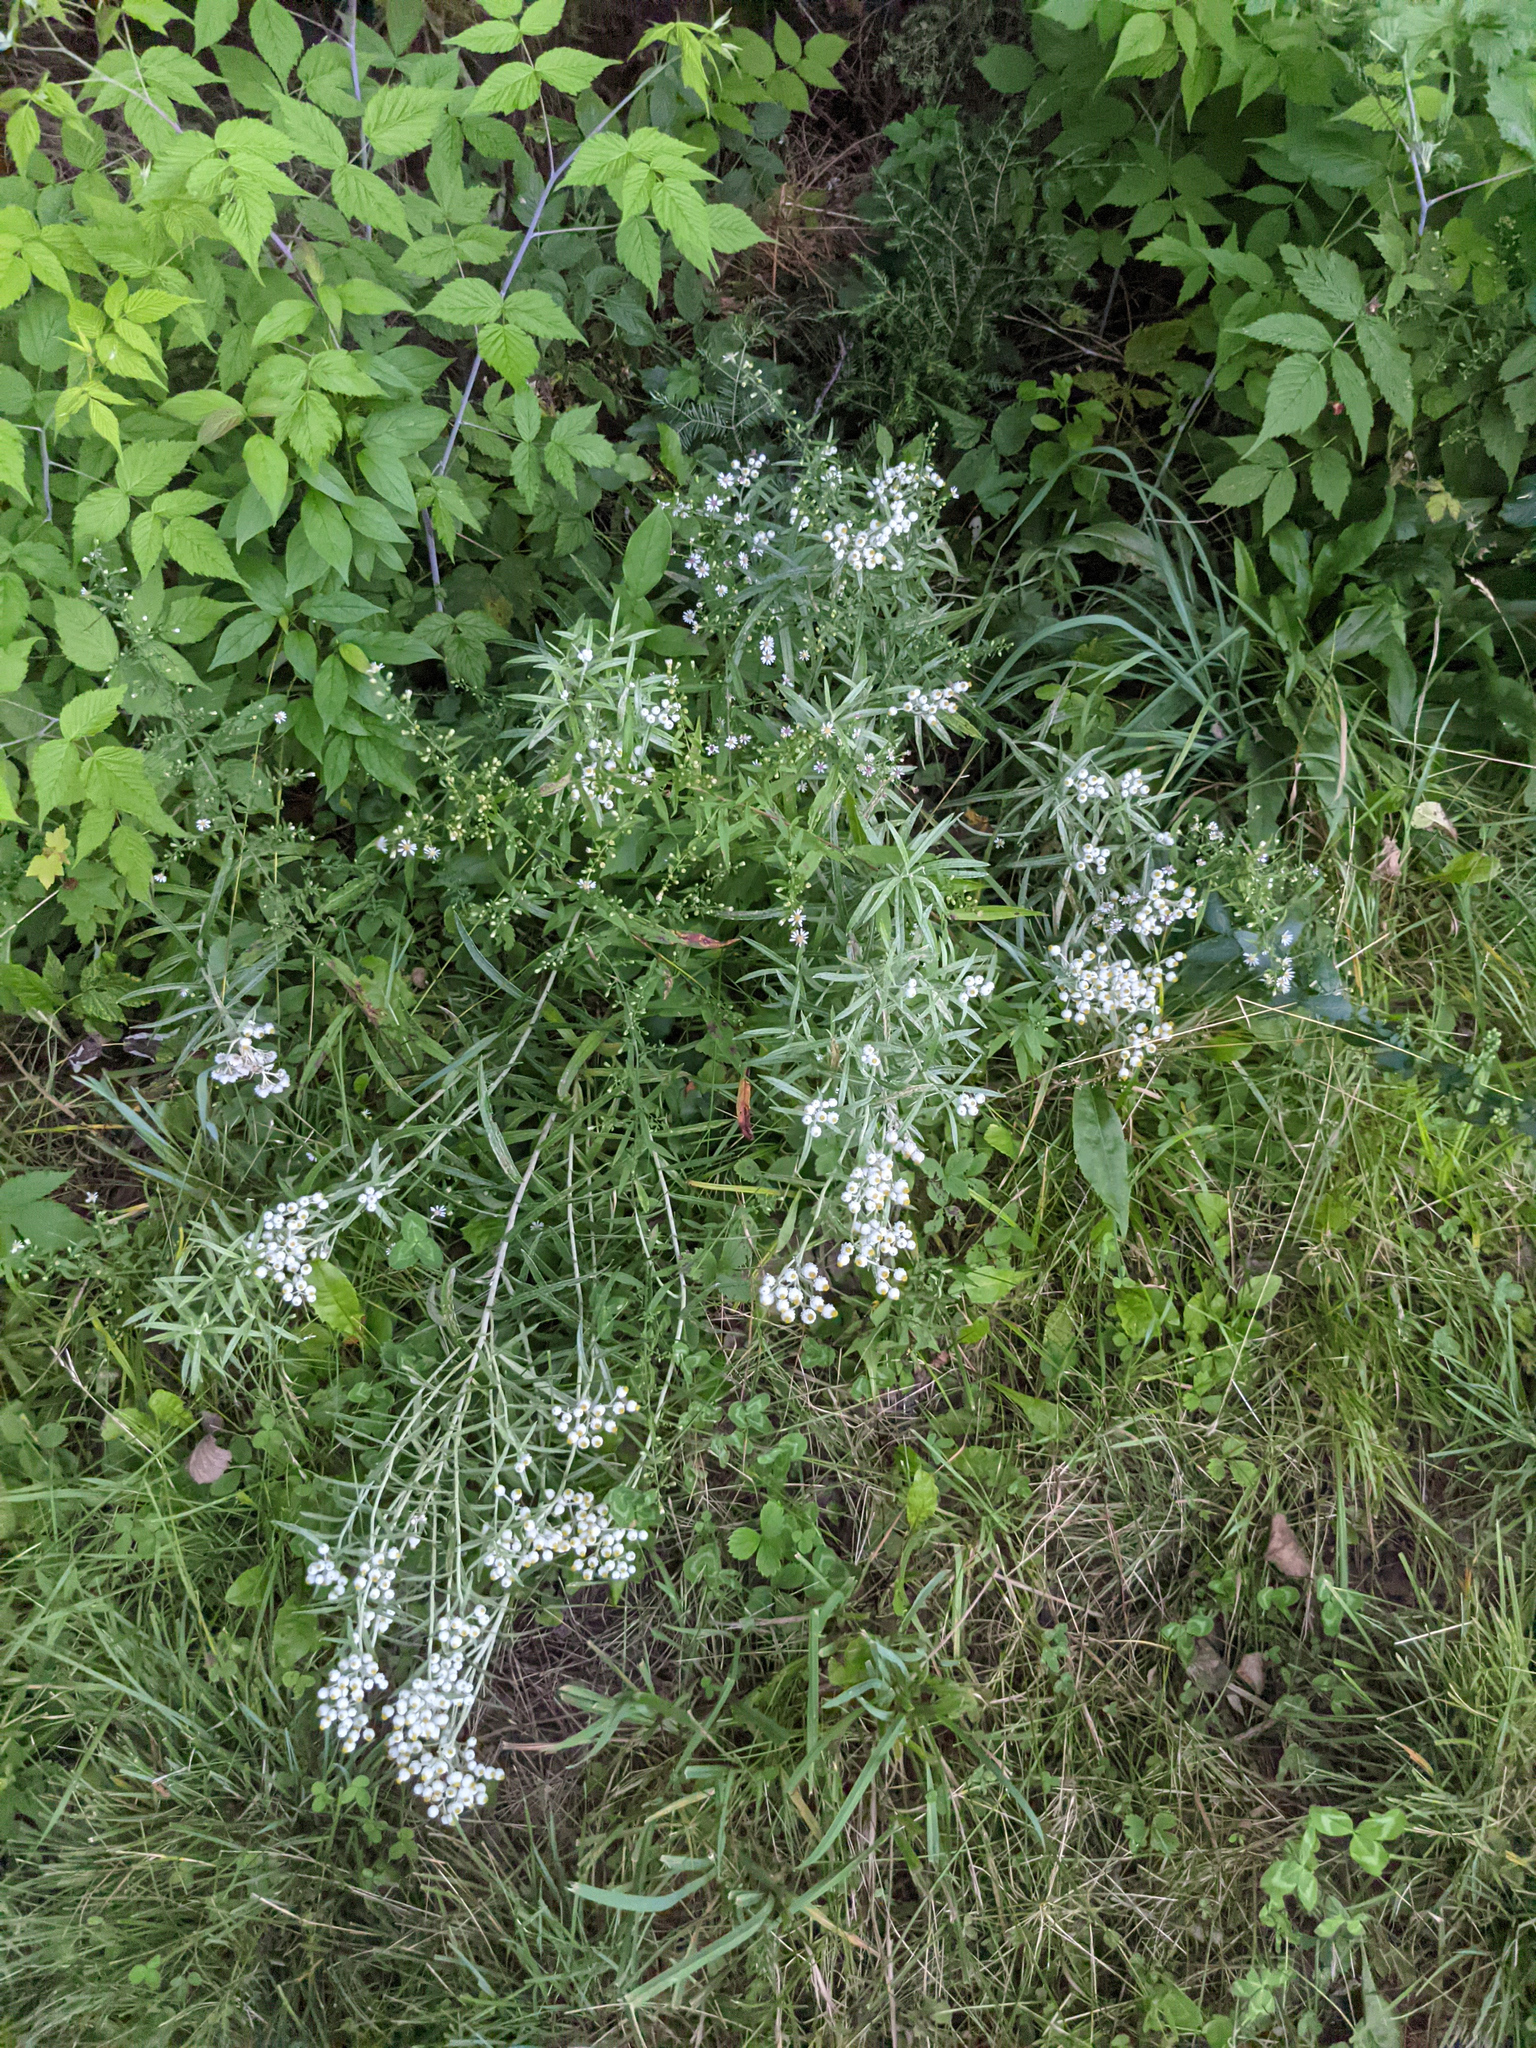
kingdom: Plantae
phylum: Tracheophyta
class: Magnoliopsida
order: Asterales
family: Asteraceae
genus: Anaphalis
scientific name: Anaphalis margaritacea
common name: Pearly everlasting
